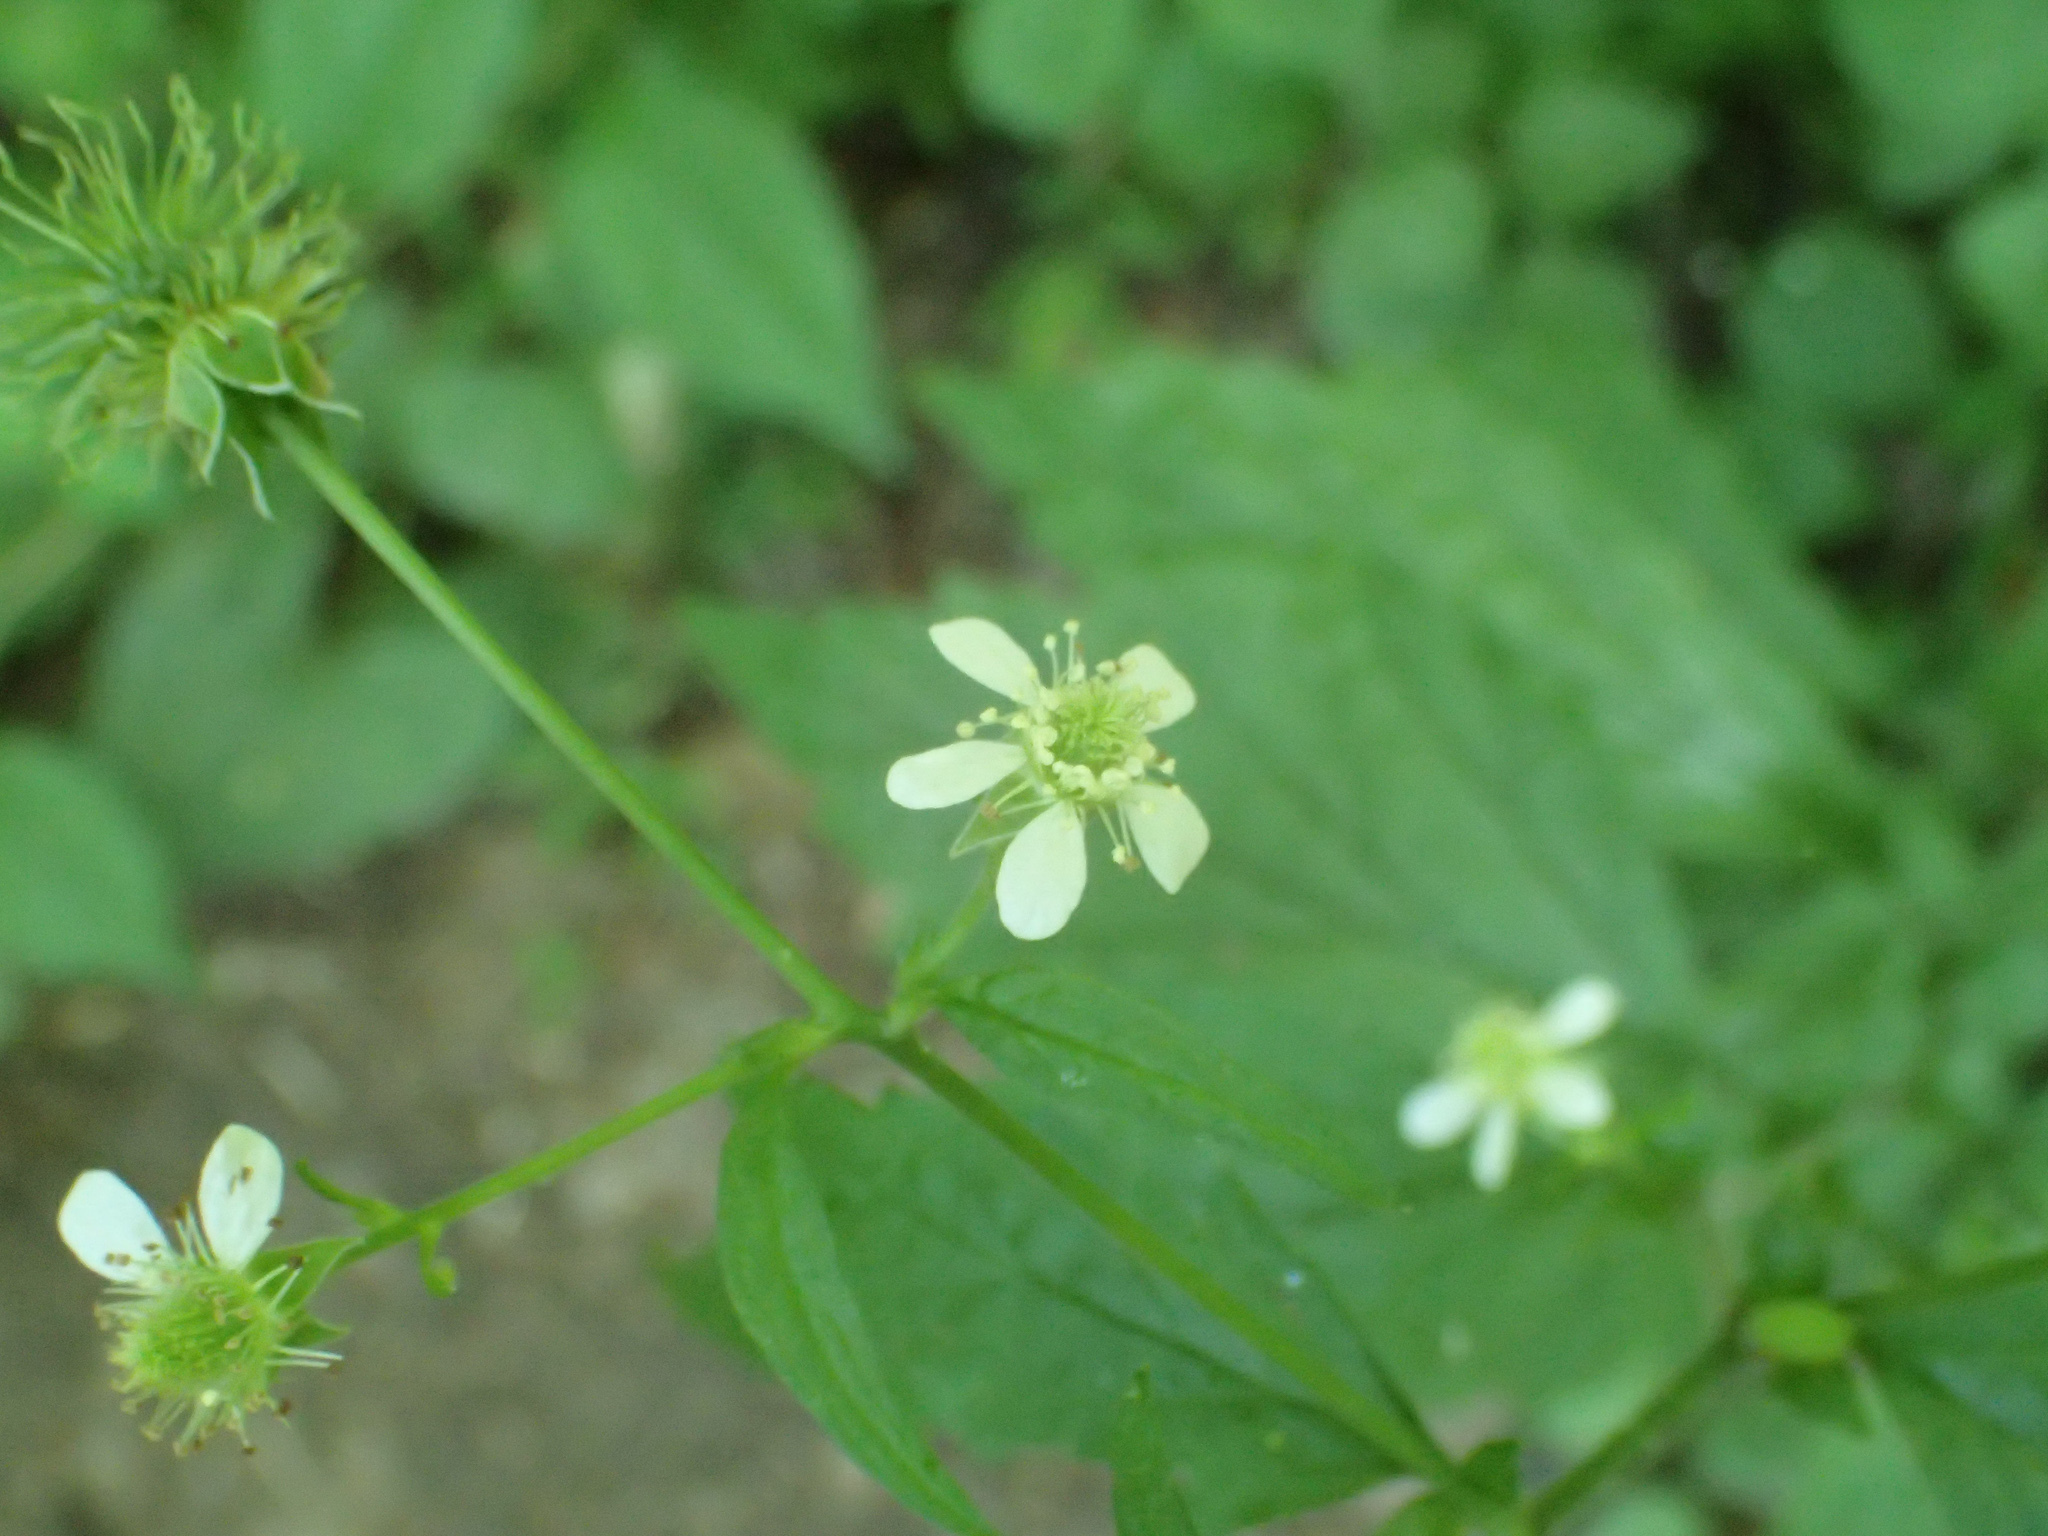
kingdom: Plantae
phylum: Tracheophyta
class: Magnoliopsida
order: Rosales
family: Rosaceae
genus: Geum
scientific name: Geum canadense
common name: White avens
